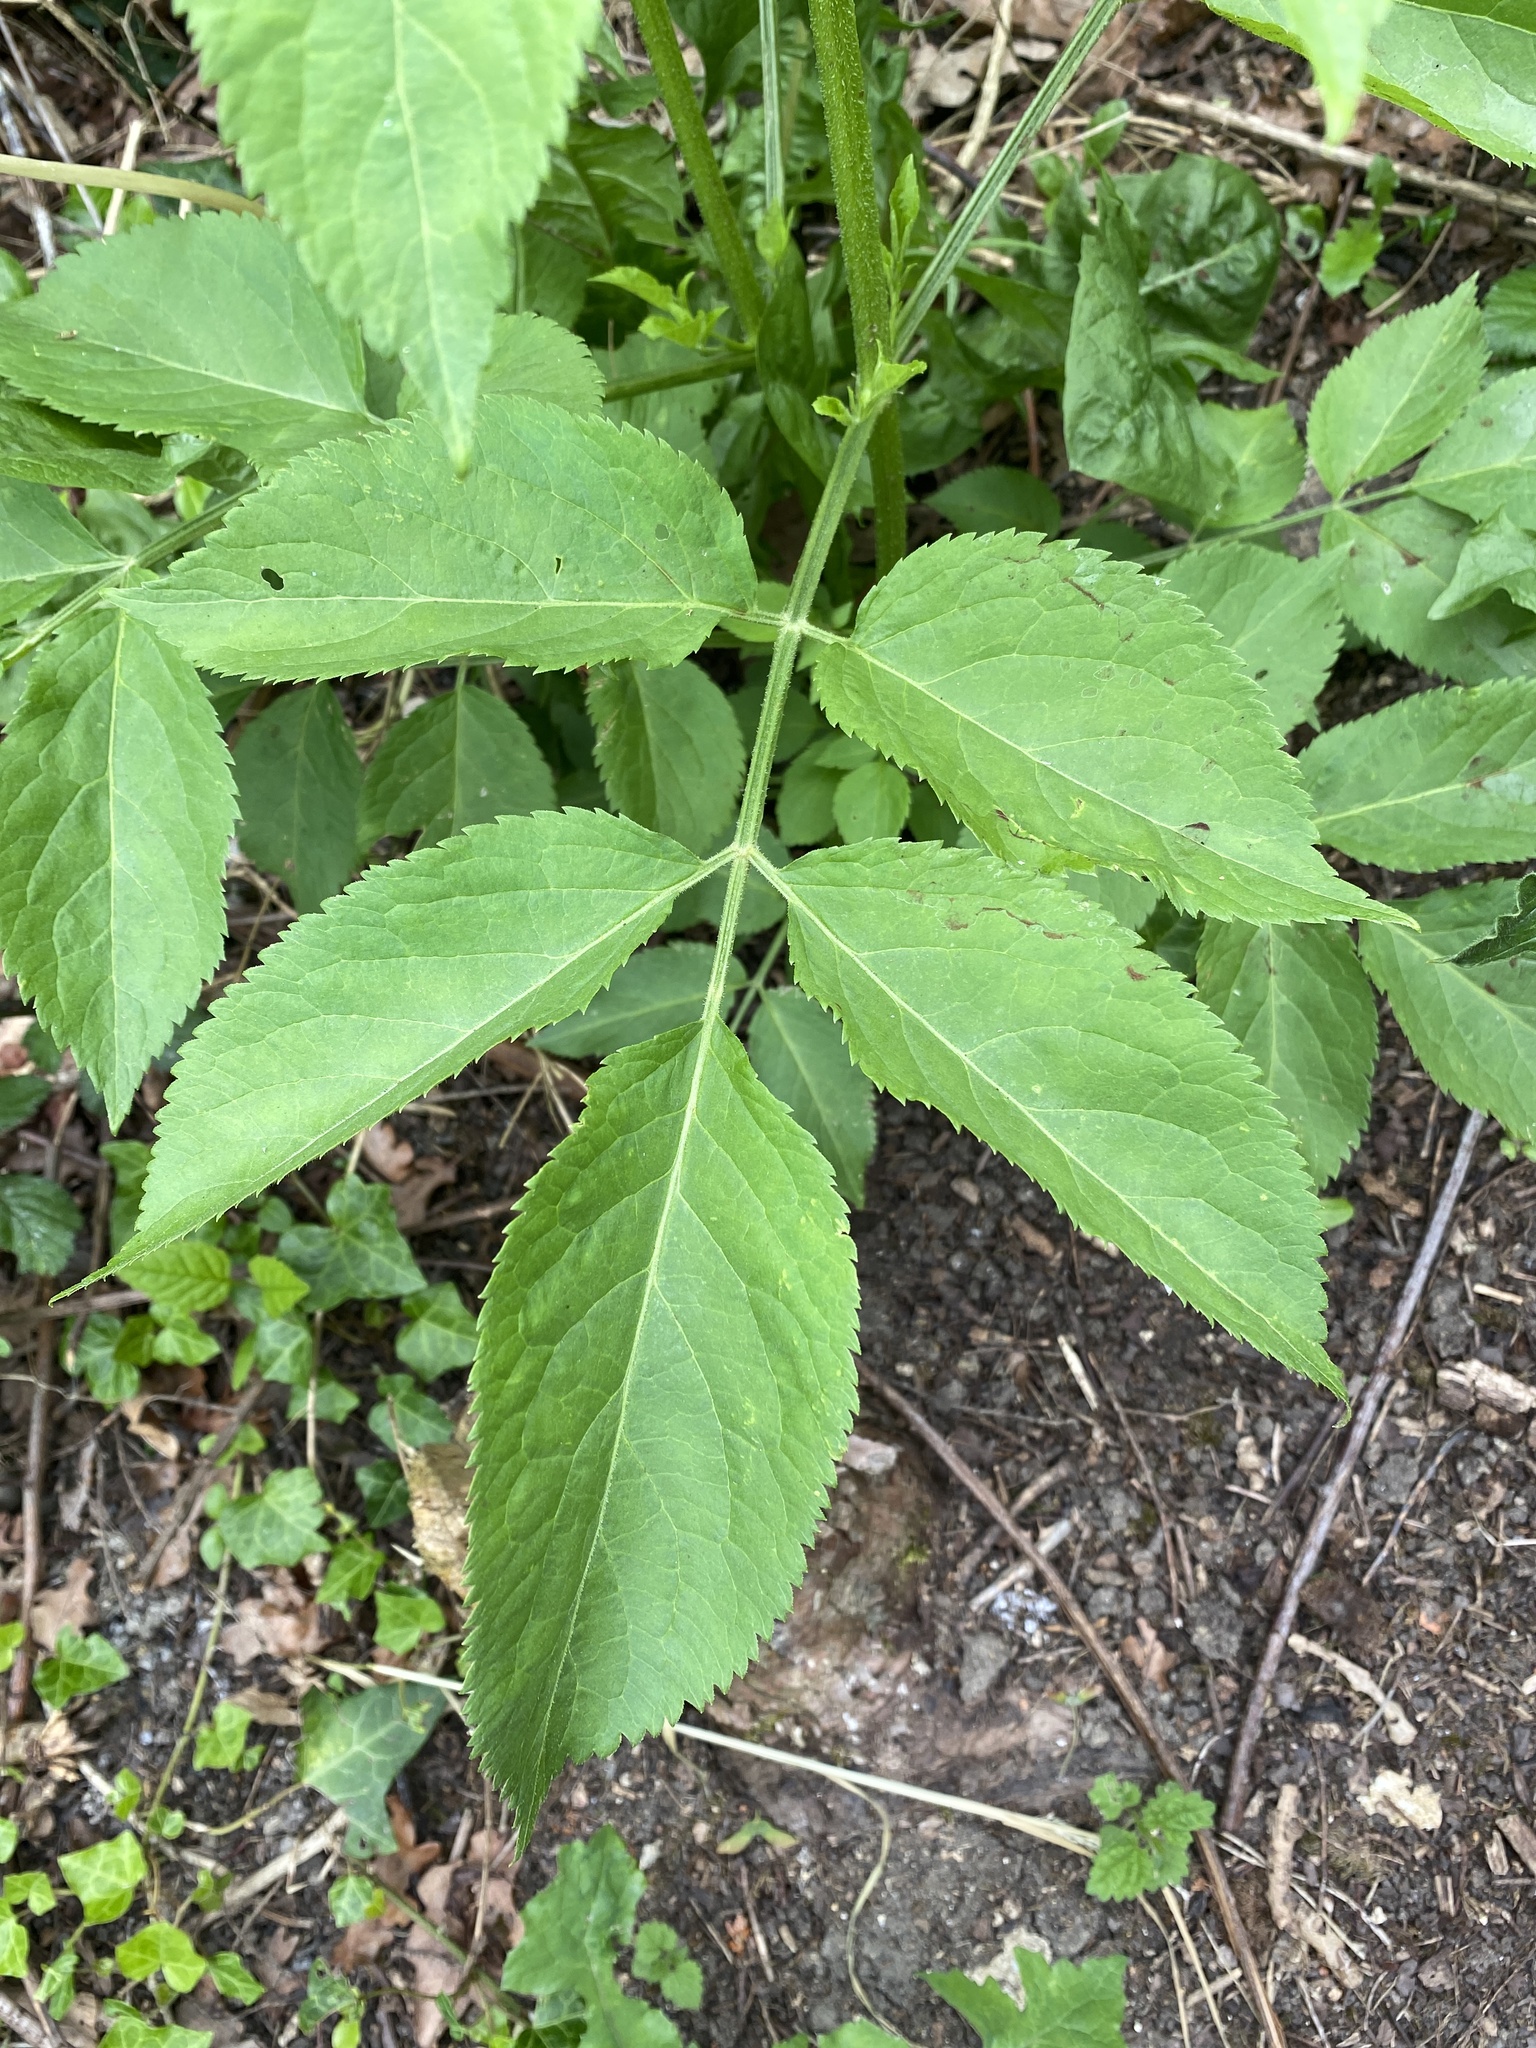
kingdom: Plantae
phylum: Tracheophyta
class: Magnoliopsida
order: Dipsacales
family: Viburnaceae
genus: Sambucus
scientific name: Sambucus nigra
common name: Elder
